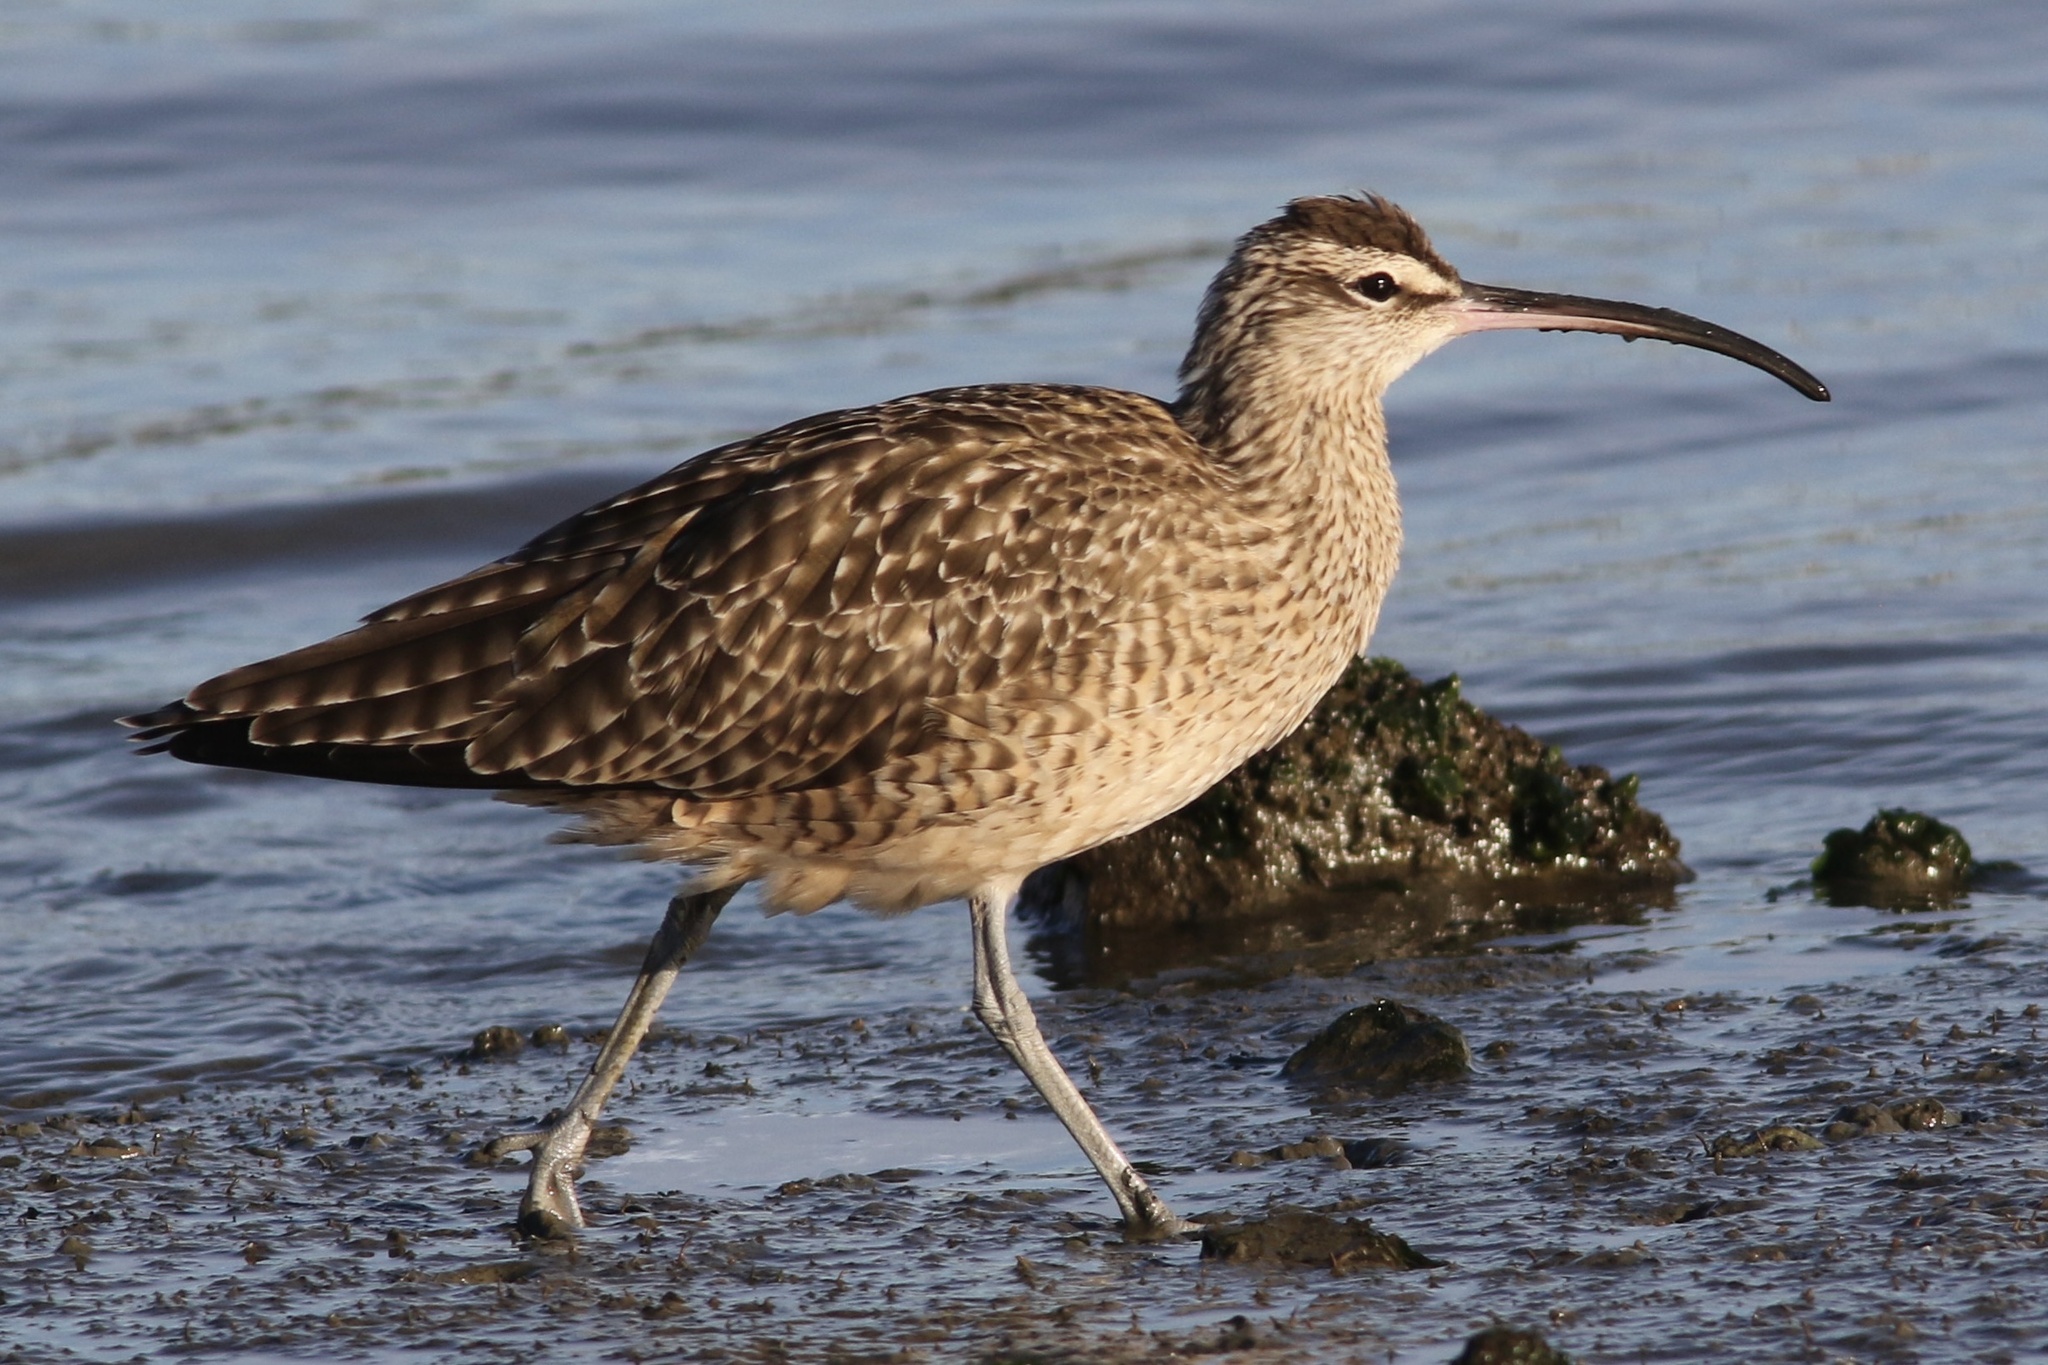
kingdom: Animalia
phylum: Chordata
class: Aves
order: Charadriiformes
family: Scolopacidae
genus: Numenius
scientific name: Numenius phaeopus
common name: Whimbrel
